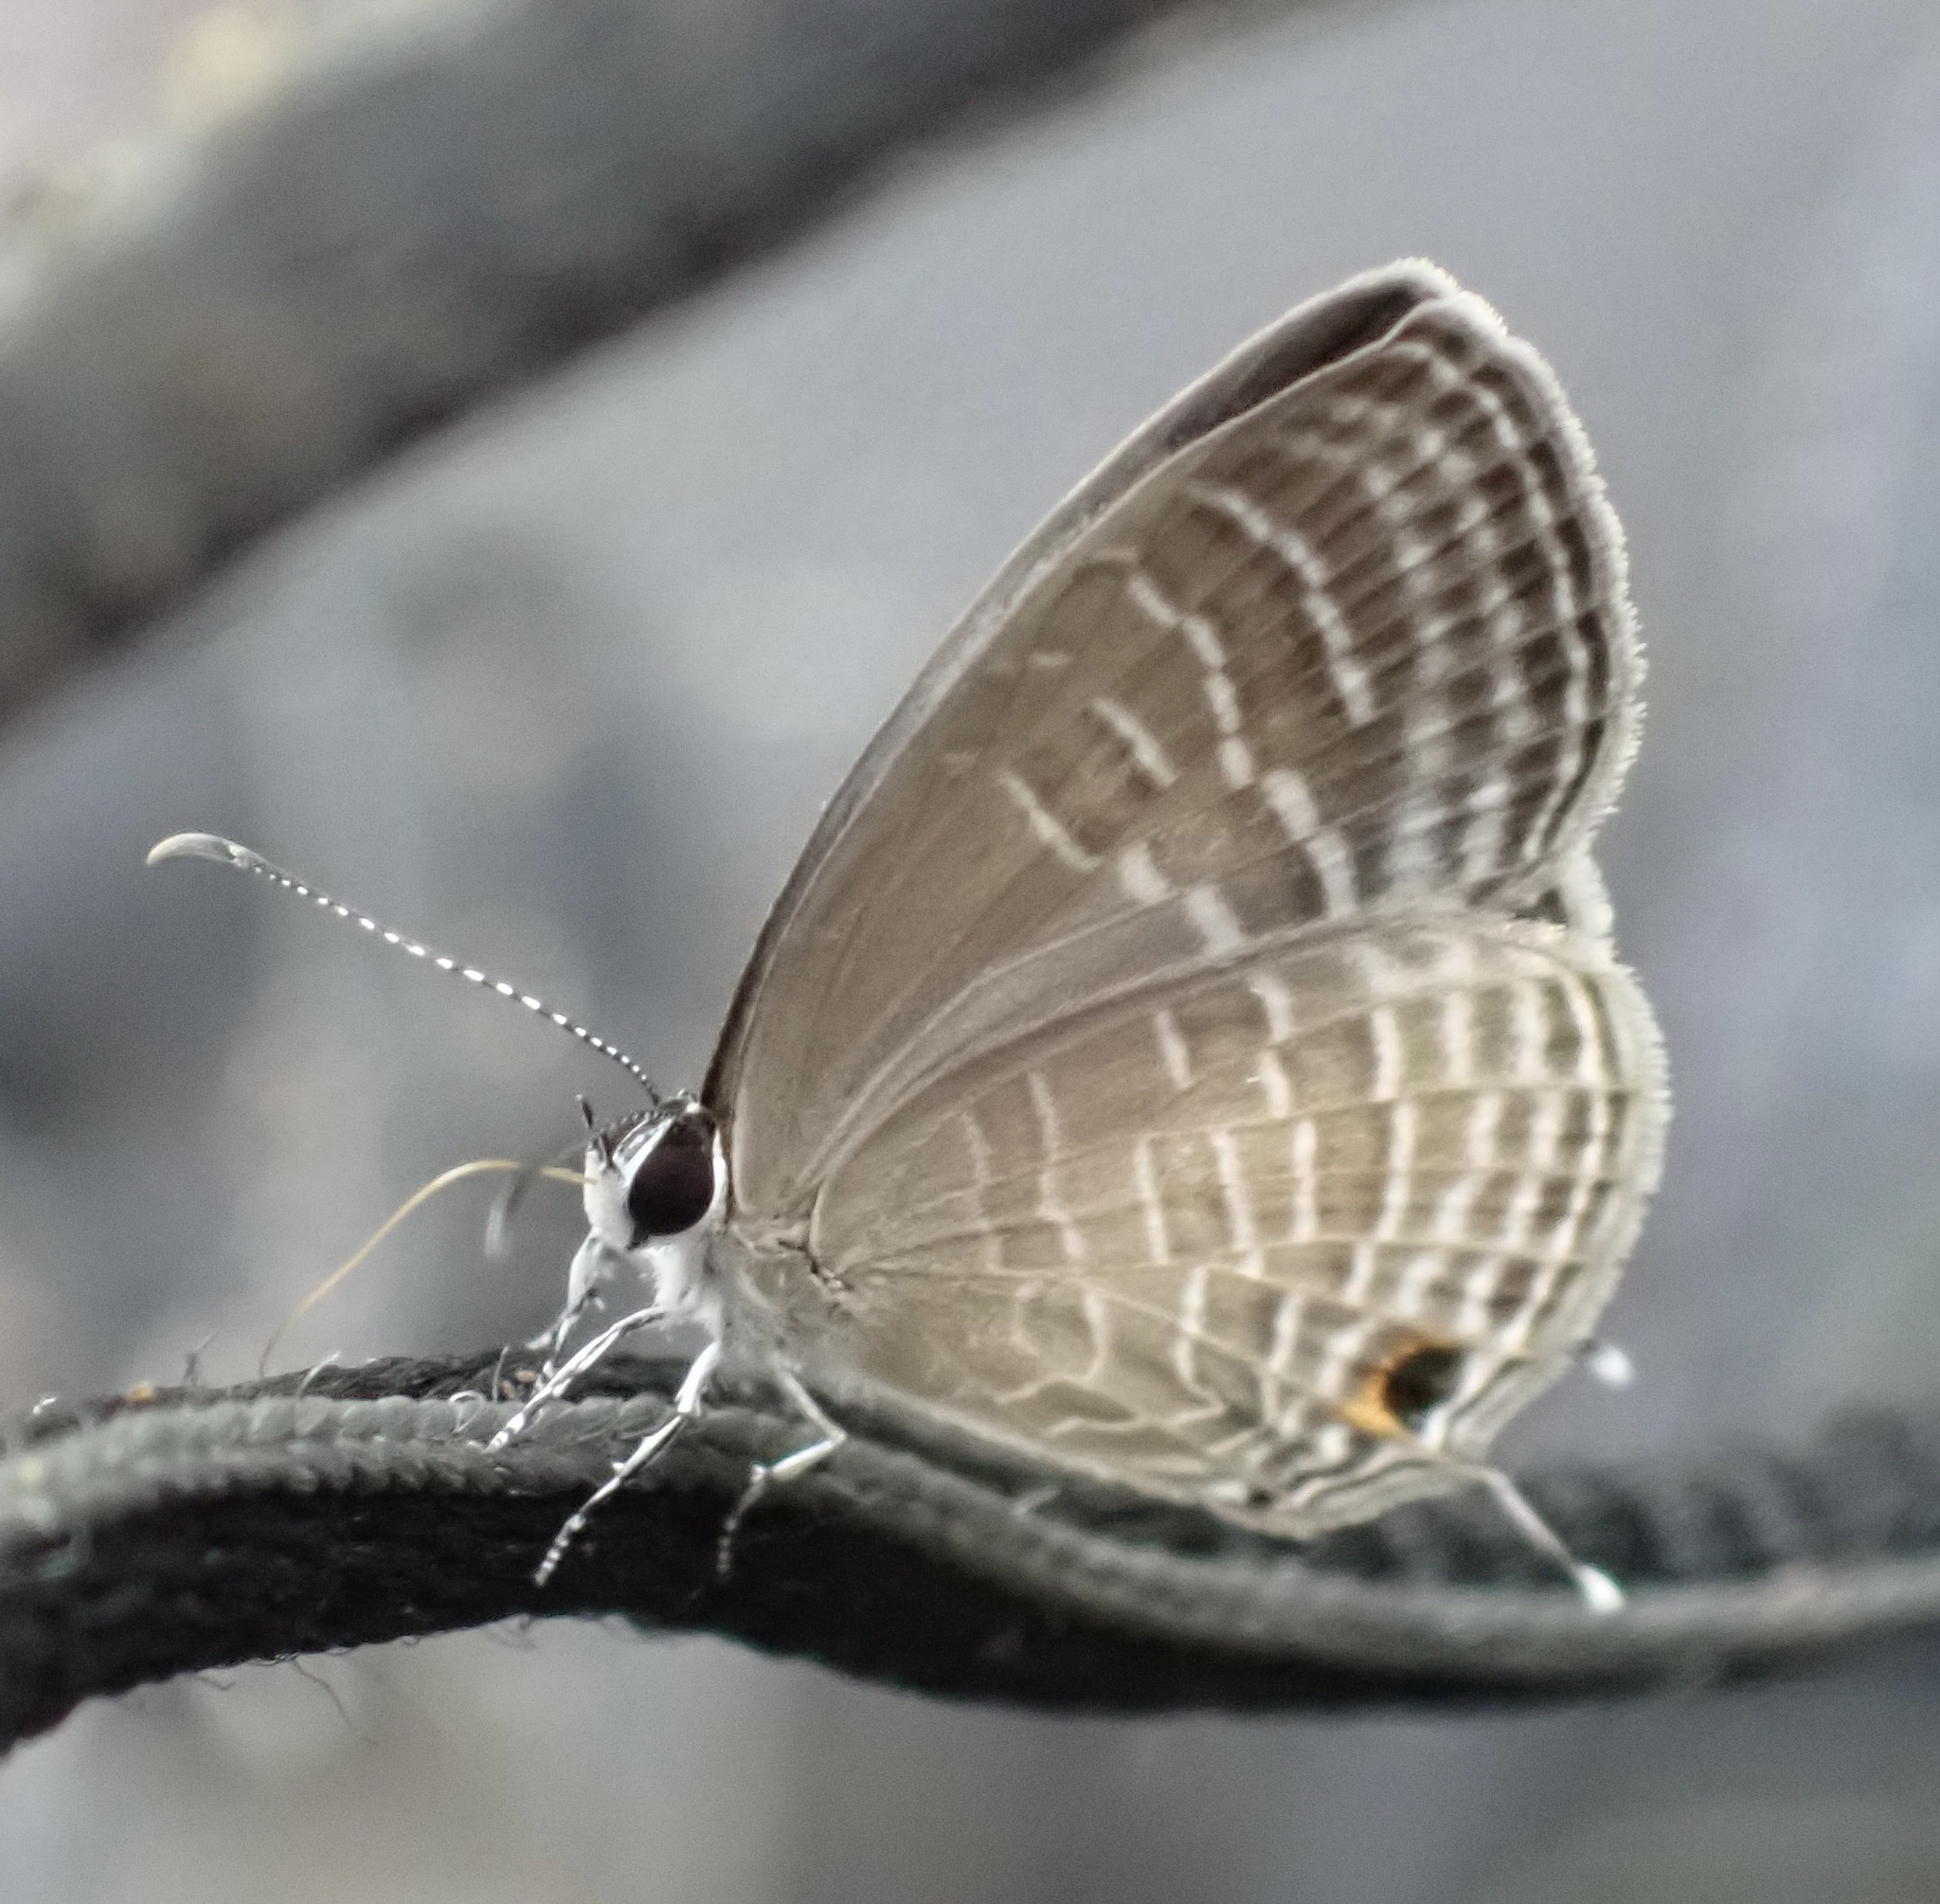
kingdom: Animalia
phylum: Arthropoda
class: Insecta
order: Lepidoptera
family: Lycaenidae
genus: Jamides
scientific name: Jamides celeno
